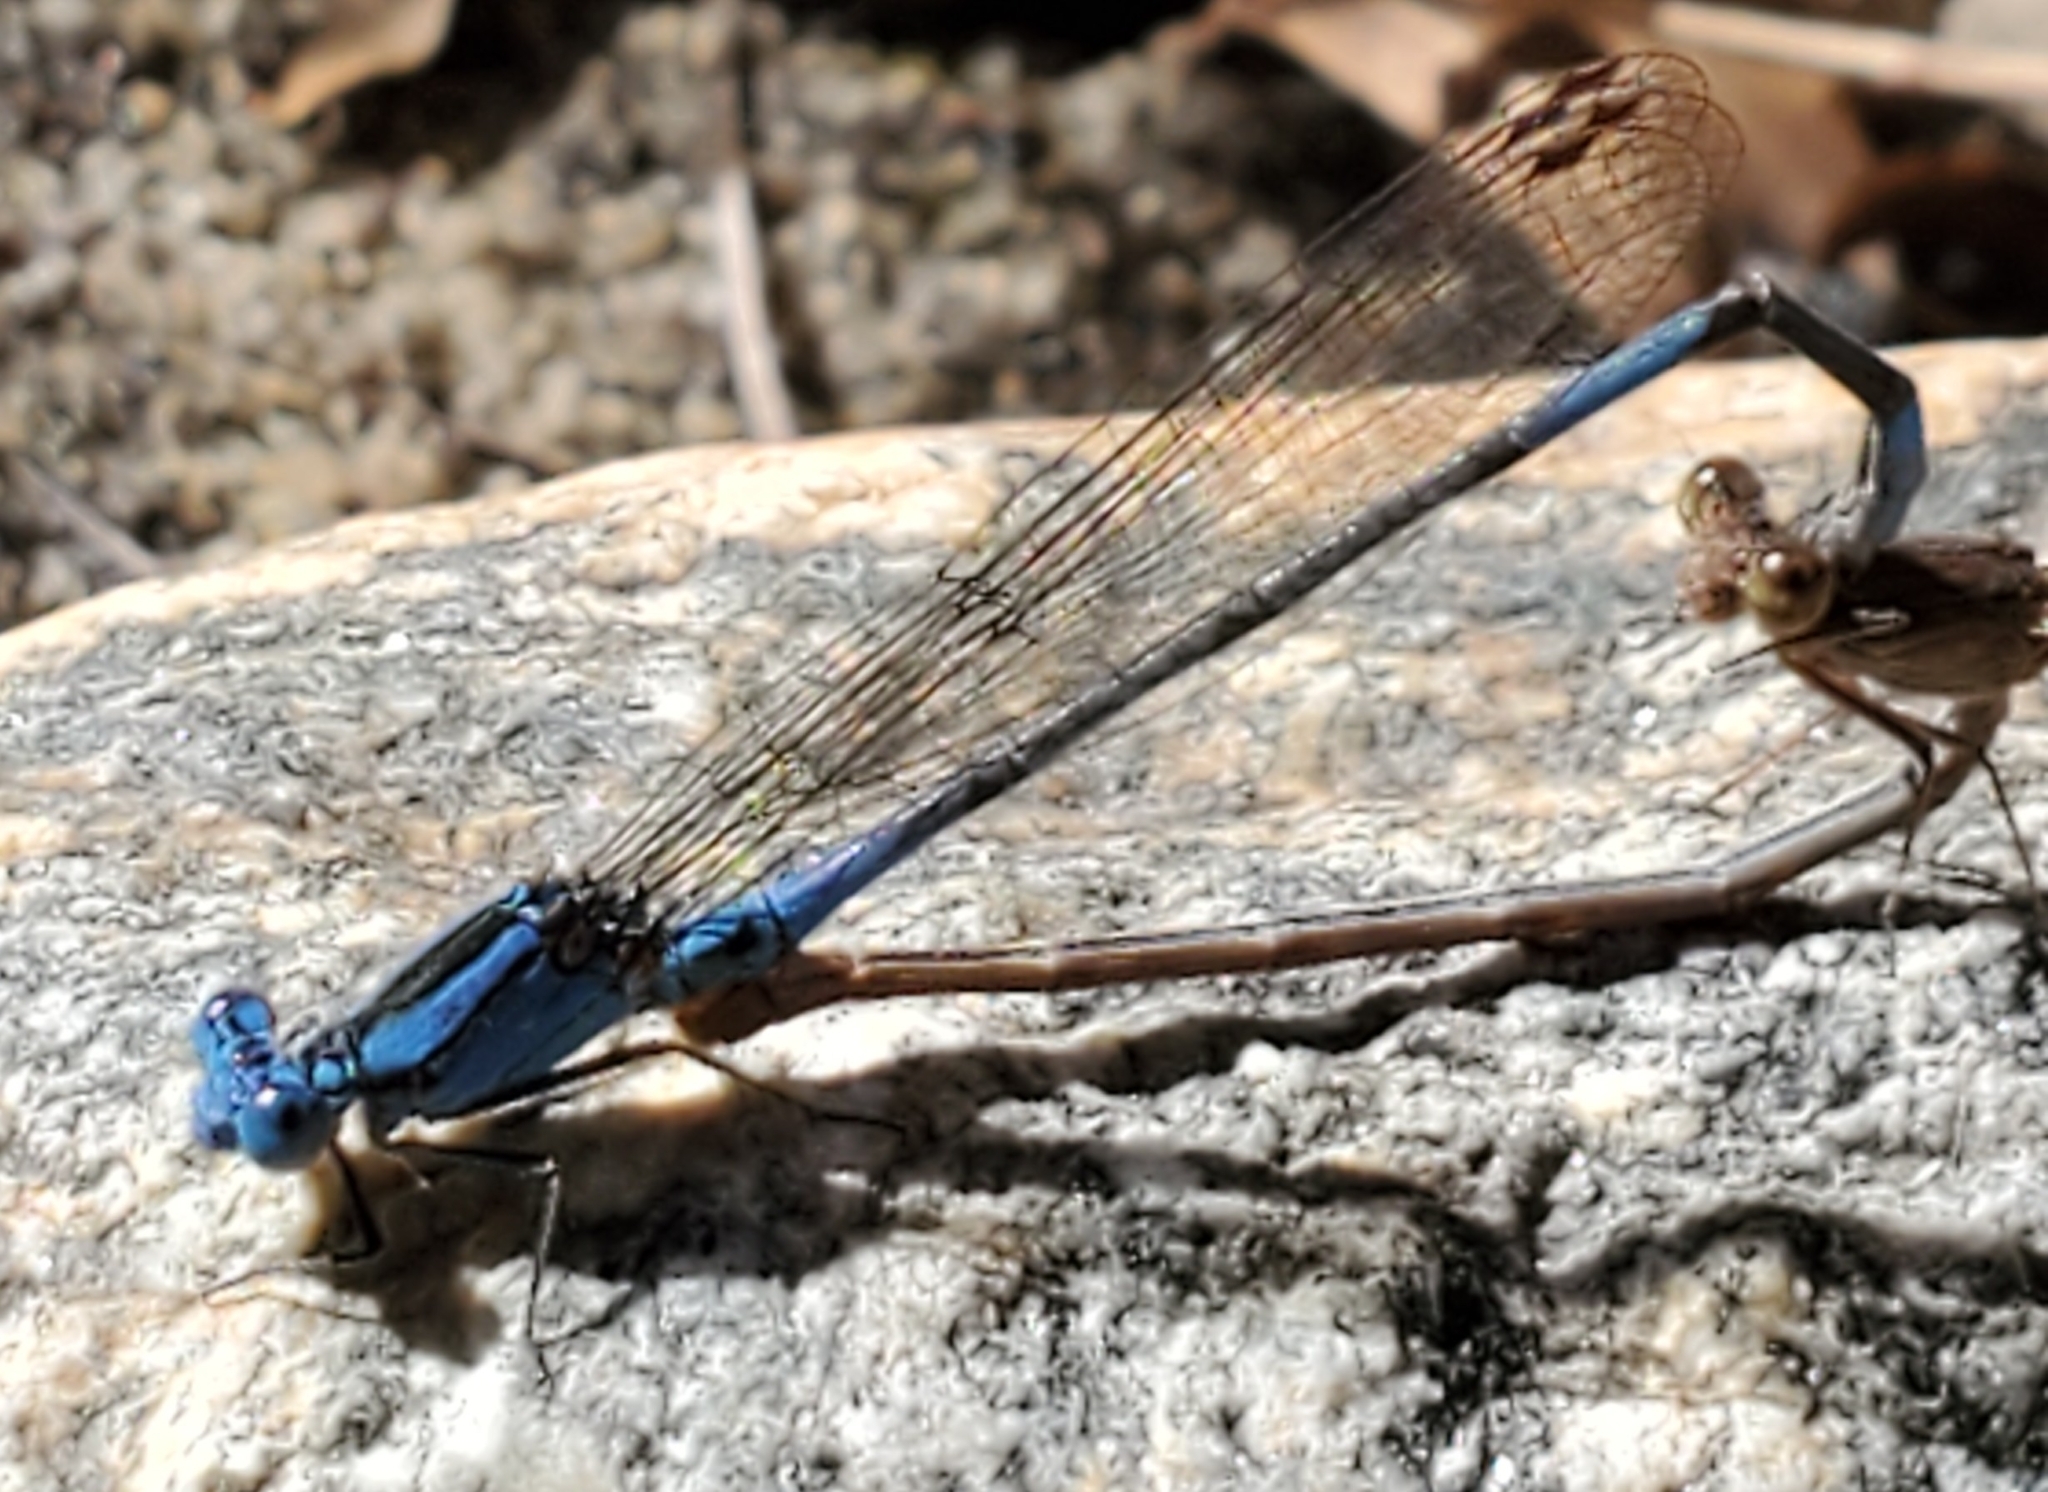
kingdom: Animalia
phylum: Arthropoda
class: Insecta
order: Odonata
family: Coenagrionidae
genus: Argia
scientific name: Argia anceps
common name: Cerulean dancer
